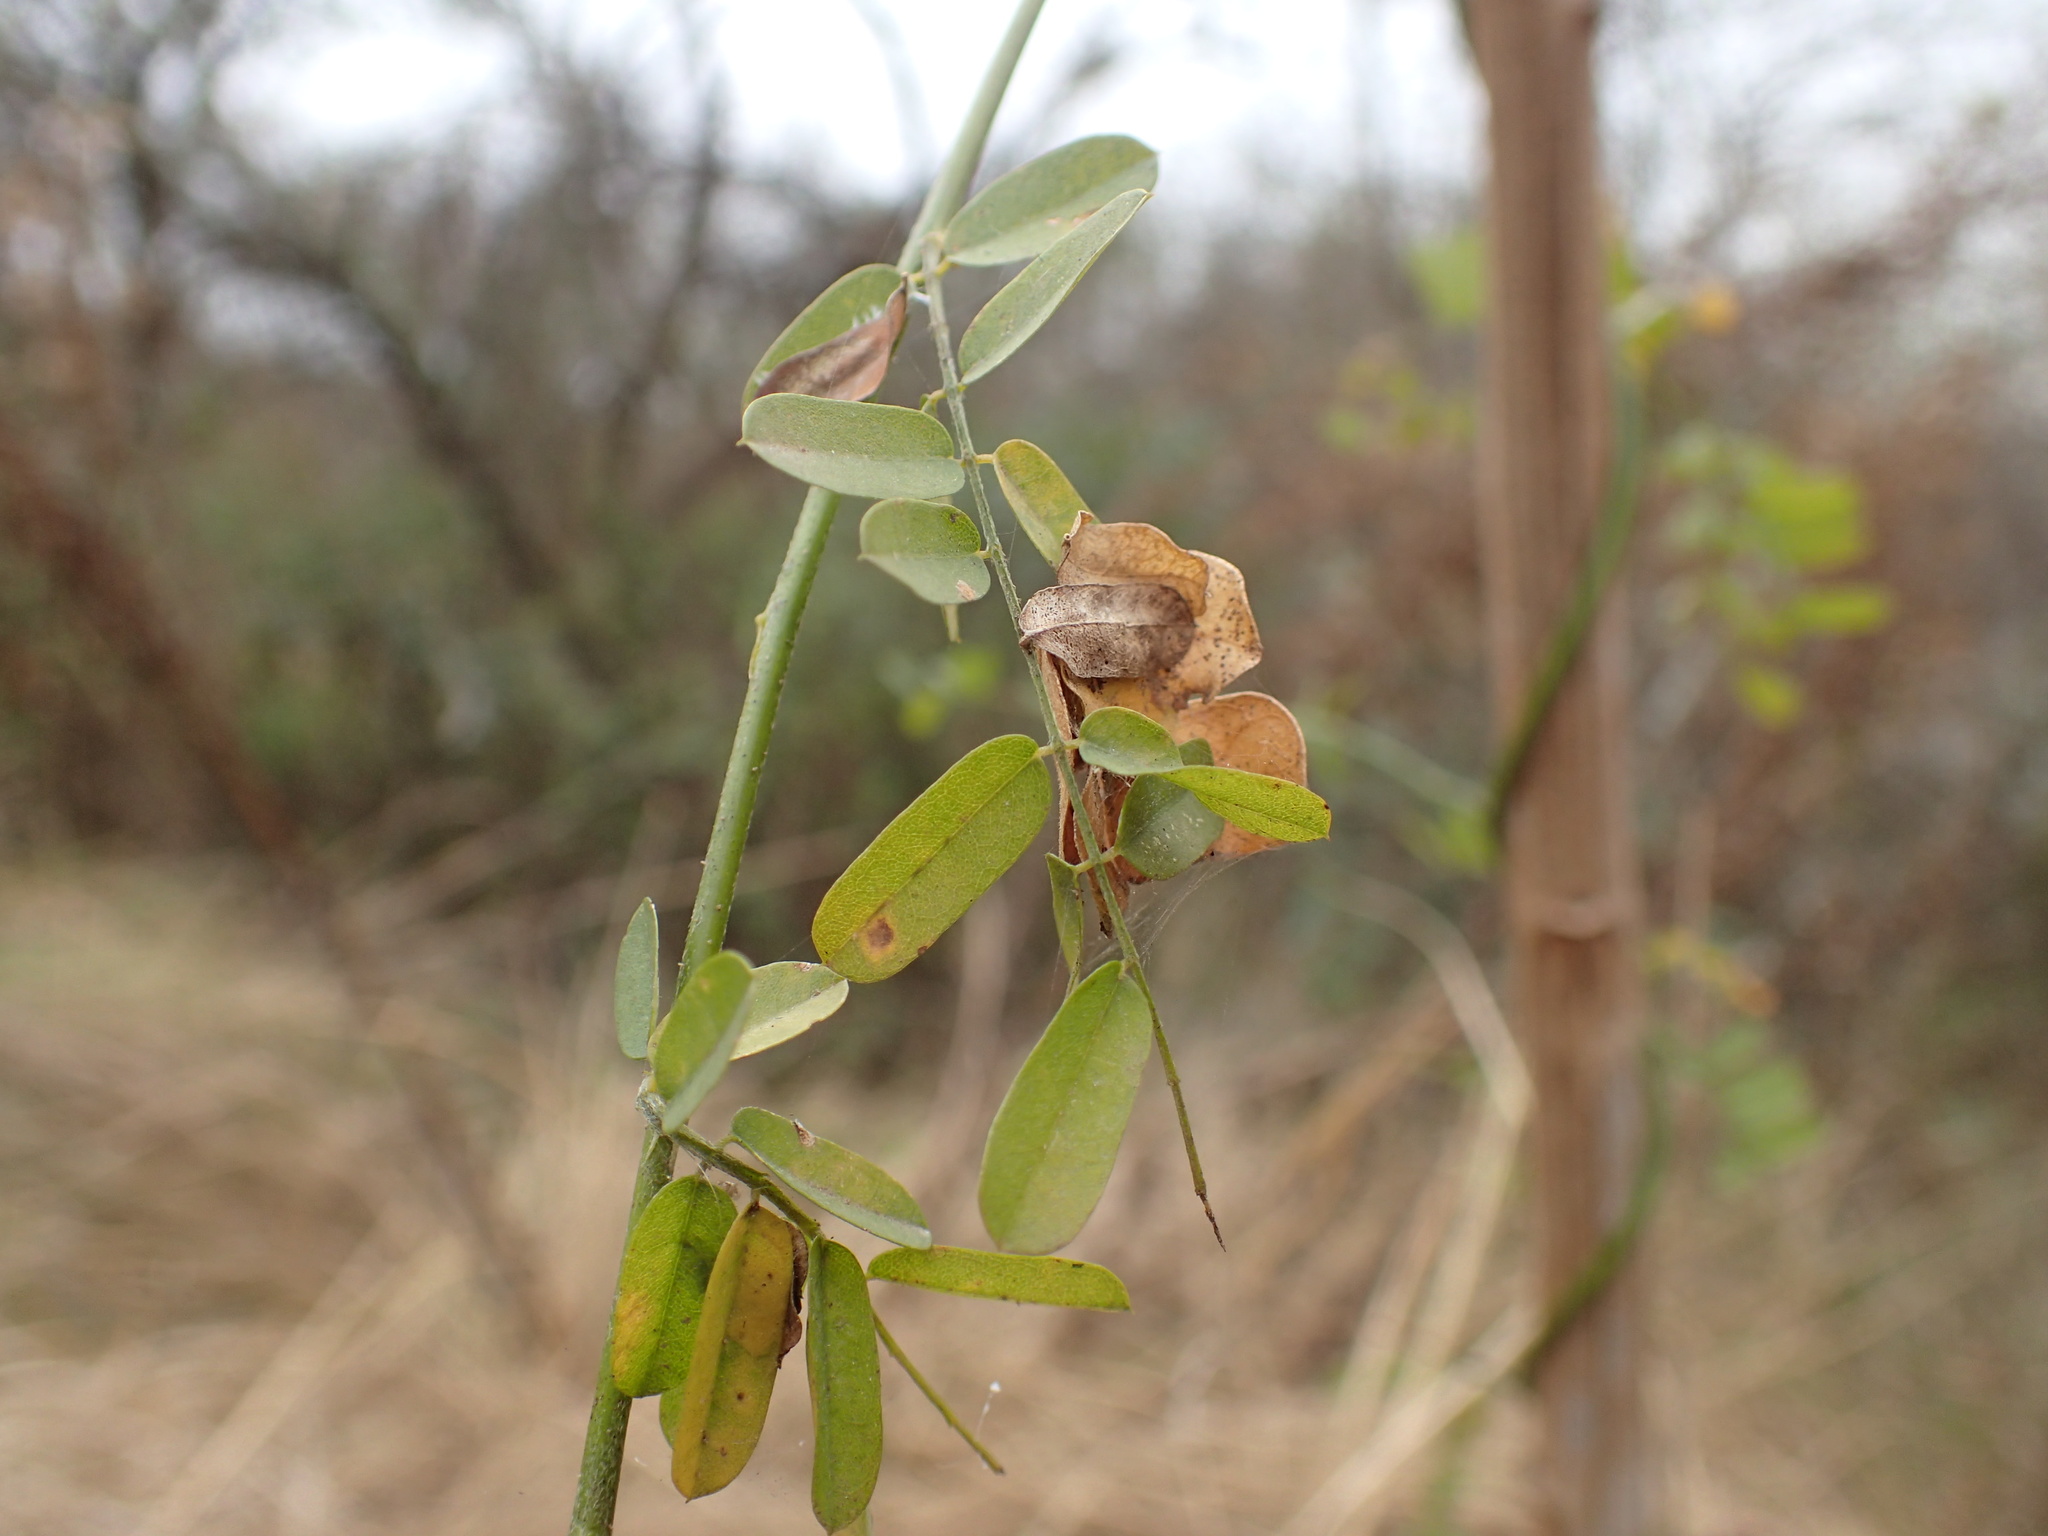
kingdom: Plantae
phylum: Tracheophyta
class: Magnoliopsida
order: Fabales
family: Fabaceae
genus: Abrus
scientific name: Abrus precatorius
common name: Rosarypea
